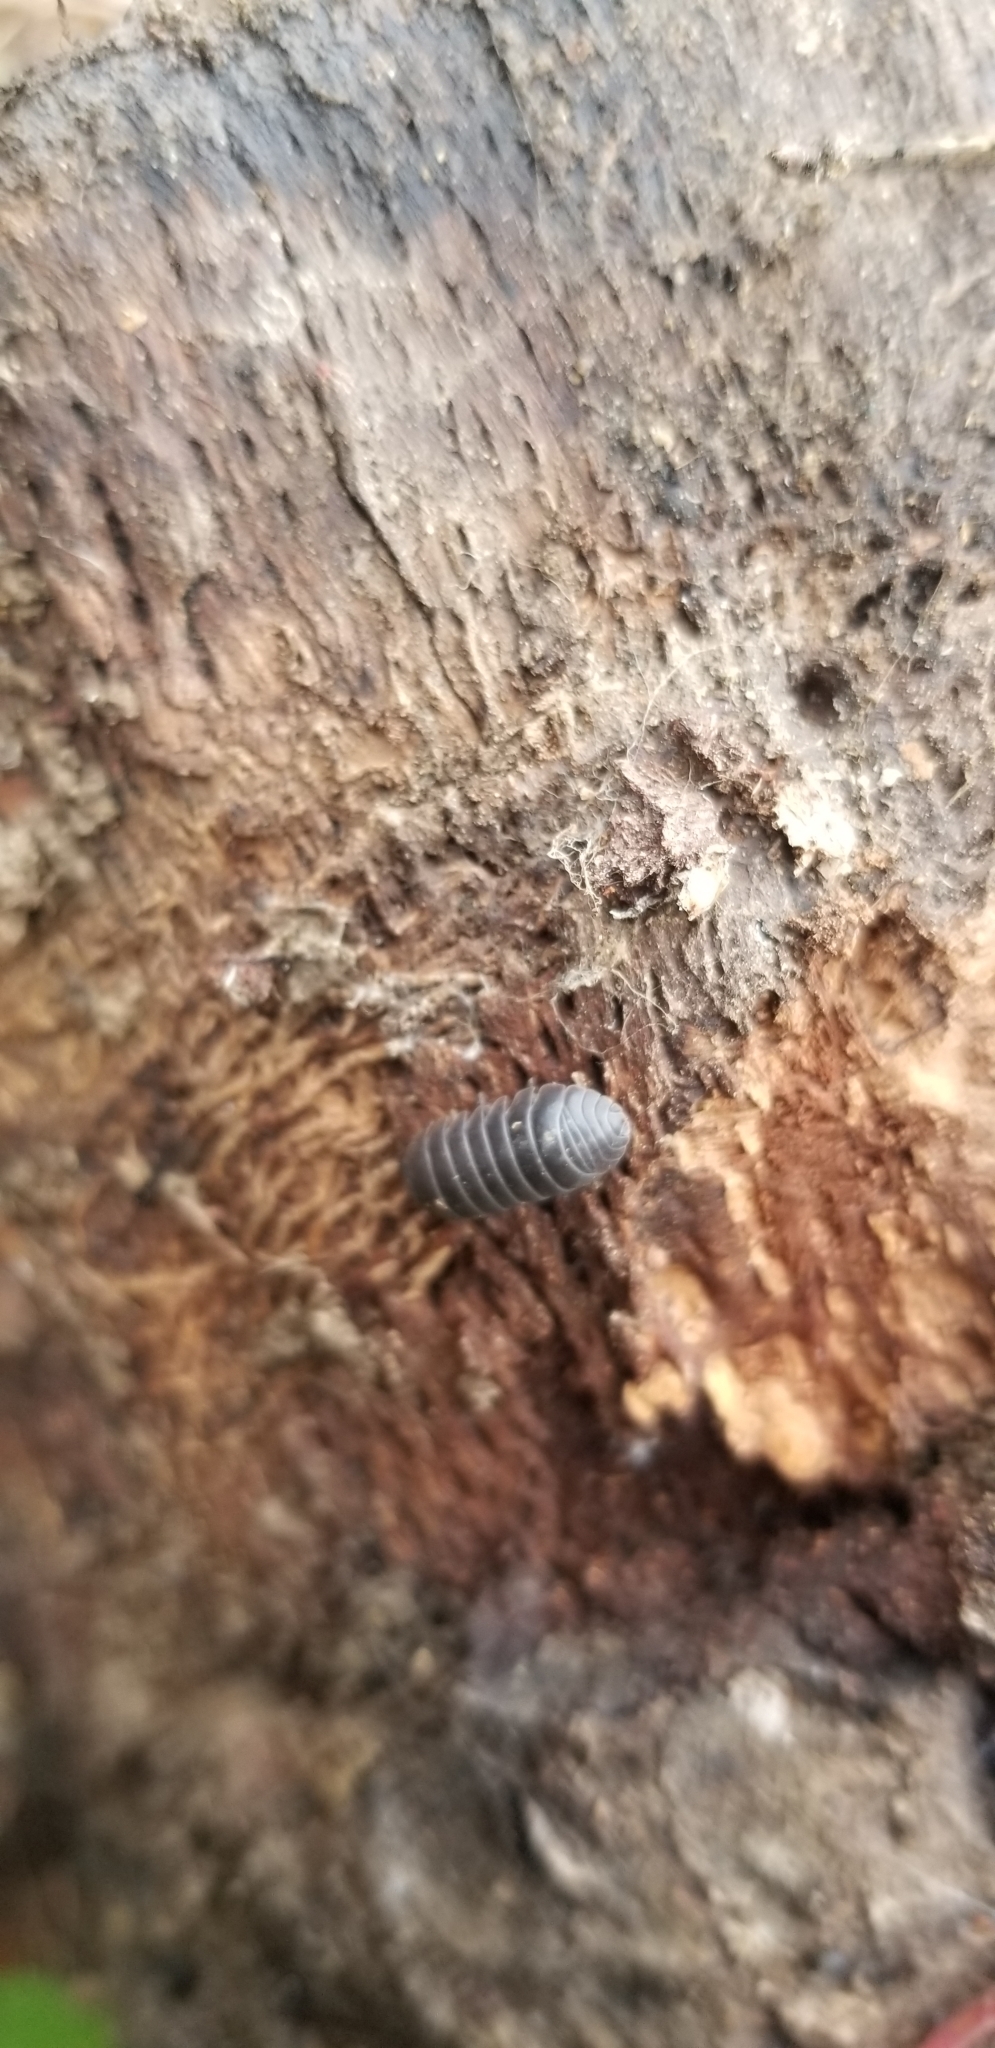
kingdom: Animalia
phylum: Arthropoda
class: Malacostraca
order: Isopoda
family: Armadillidiidae
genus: Armadillidium
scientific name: Armadillidium vulgare
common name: Common pill woodlouse
